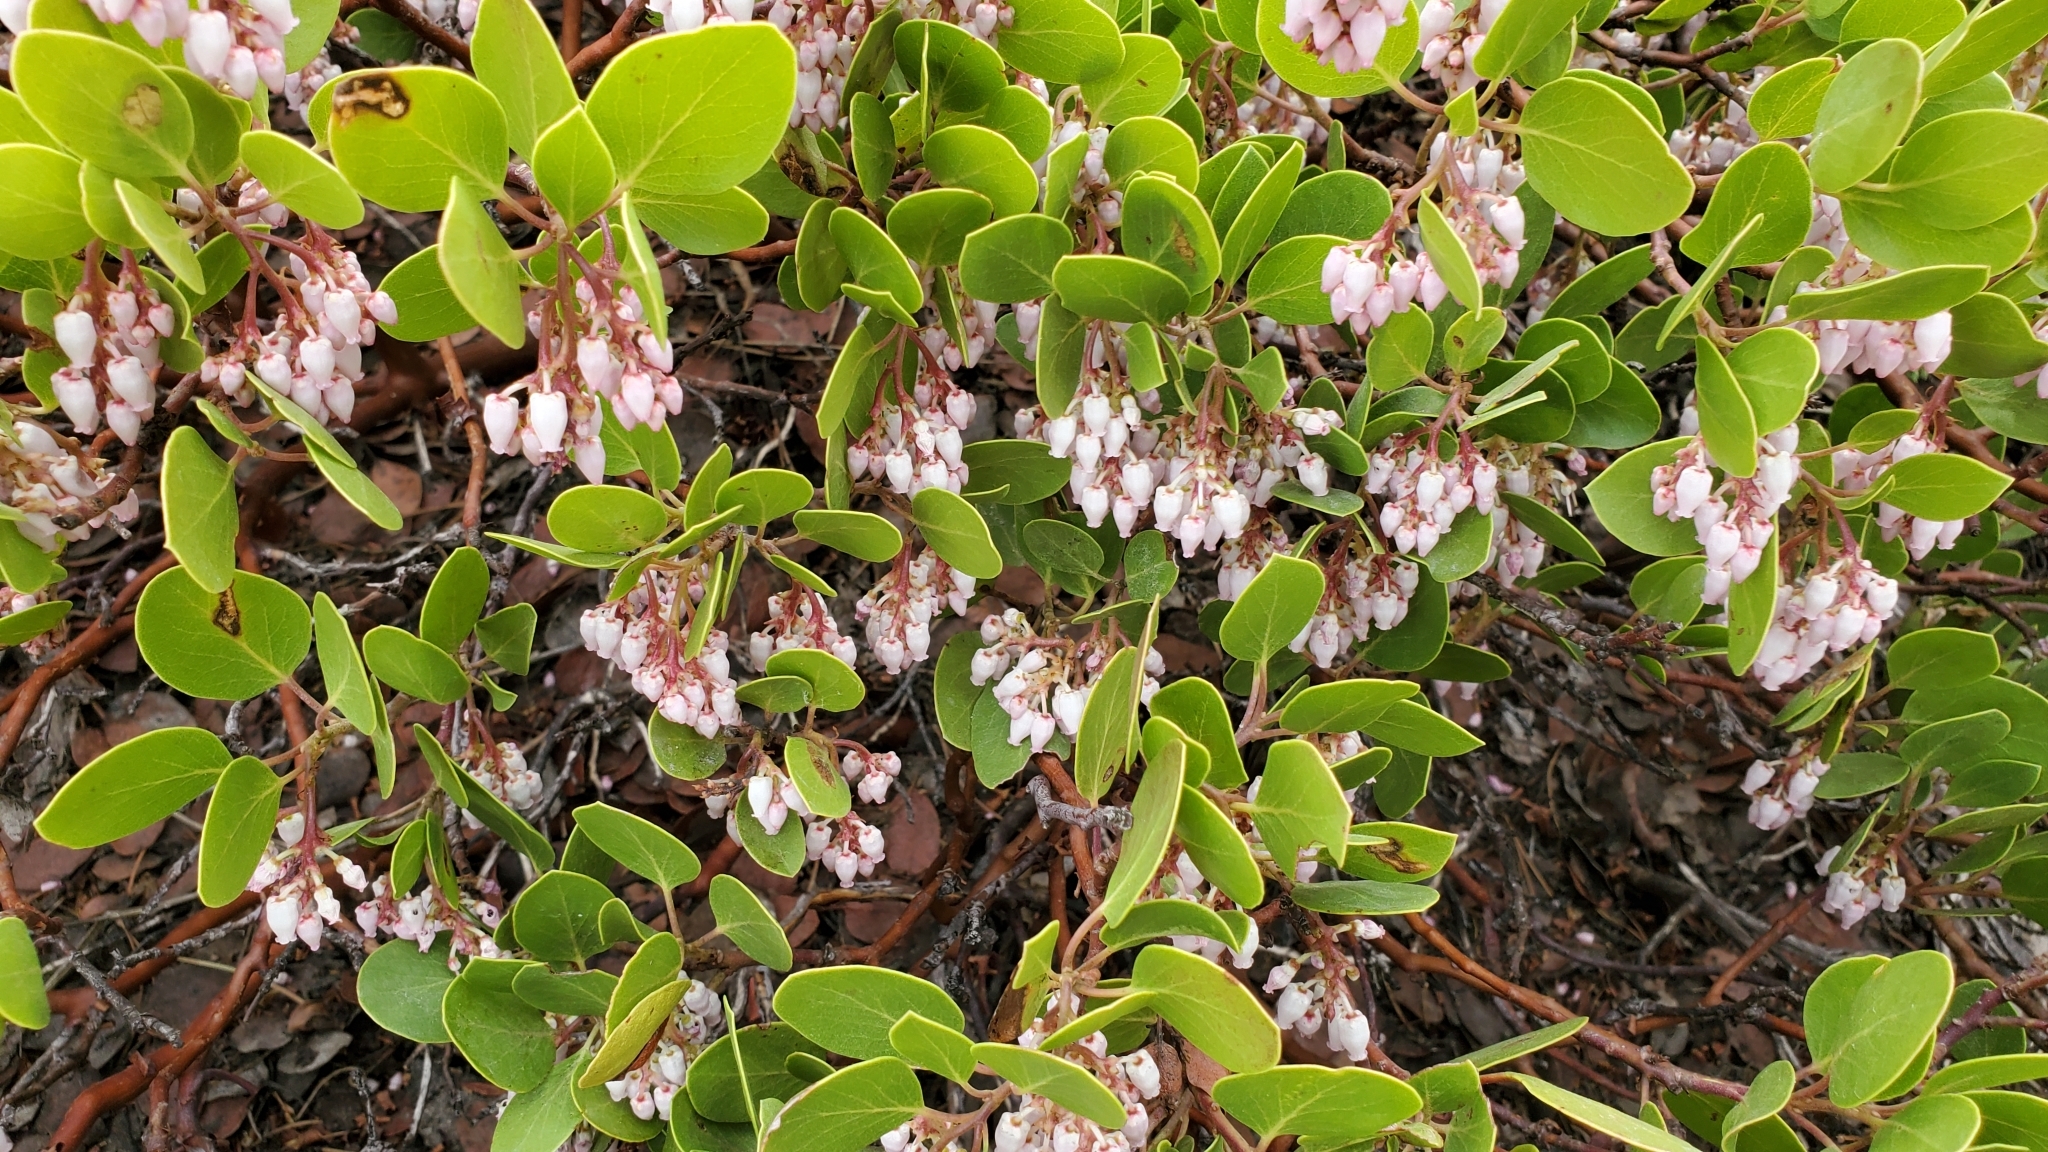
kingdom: Plantae
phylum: Tracheophyta
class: Magnoliopsida
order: Ericales
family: Ericaceae
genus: Arctostaphylos
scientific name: Arctostaphylos patula
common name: Green-leaf manzanita
